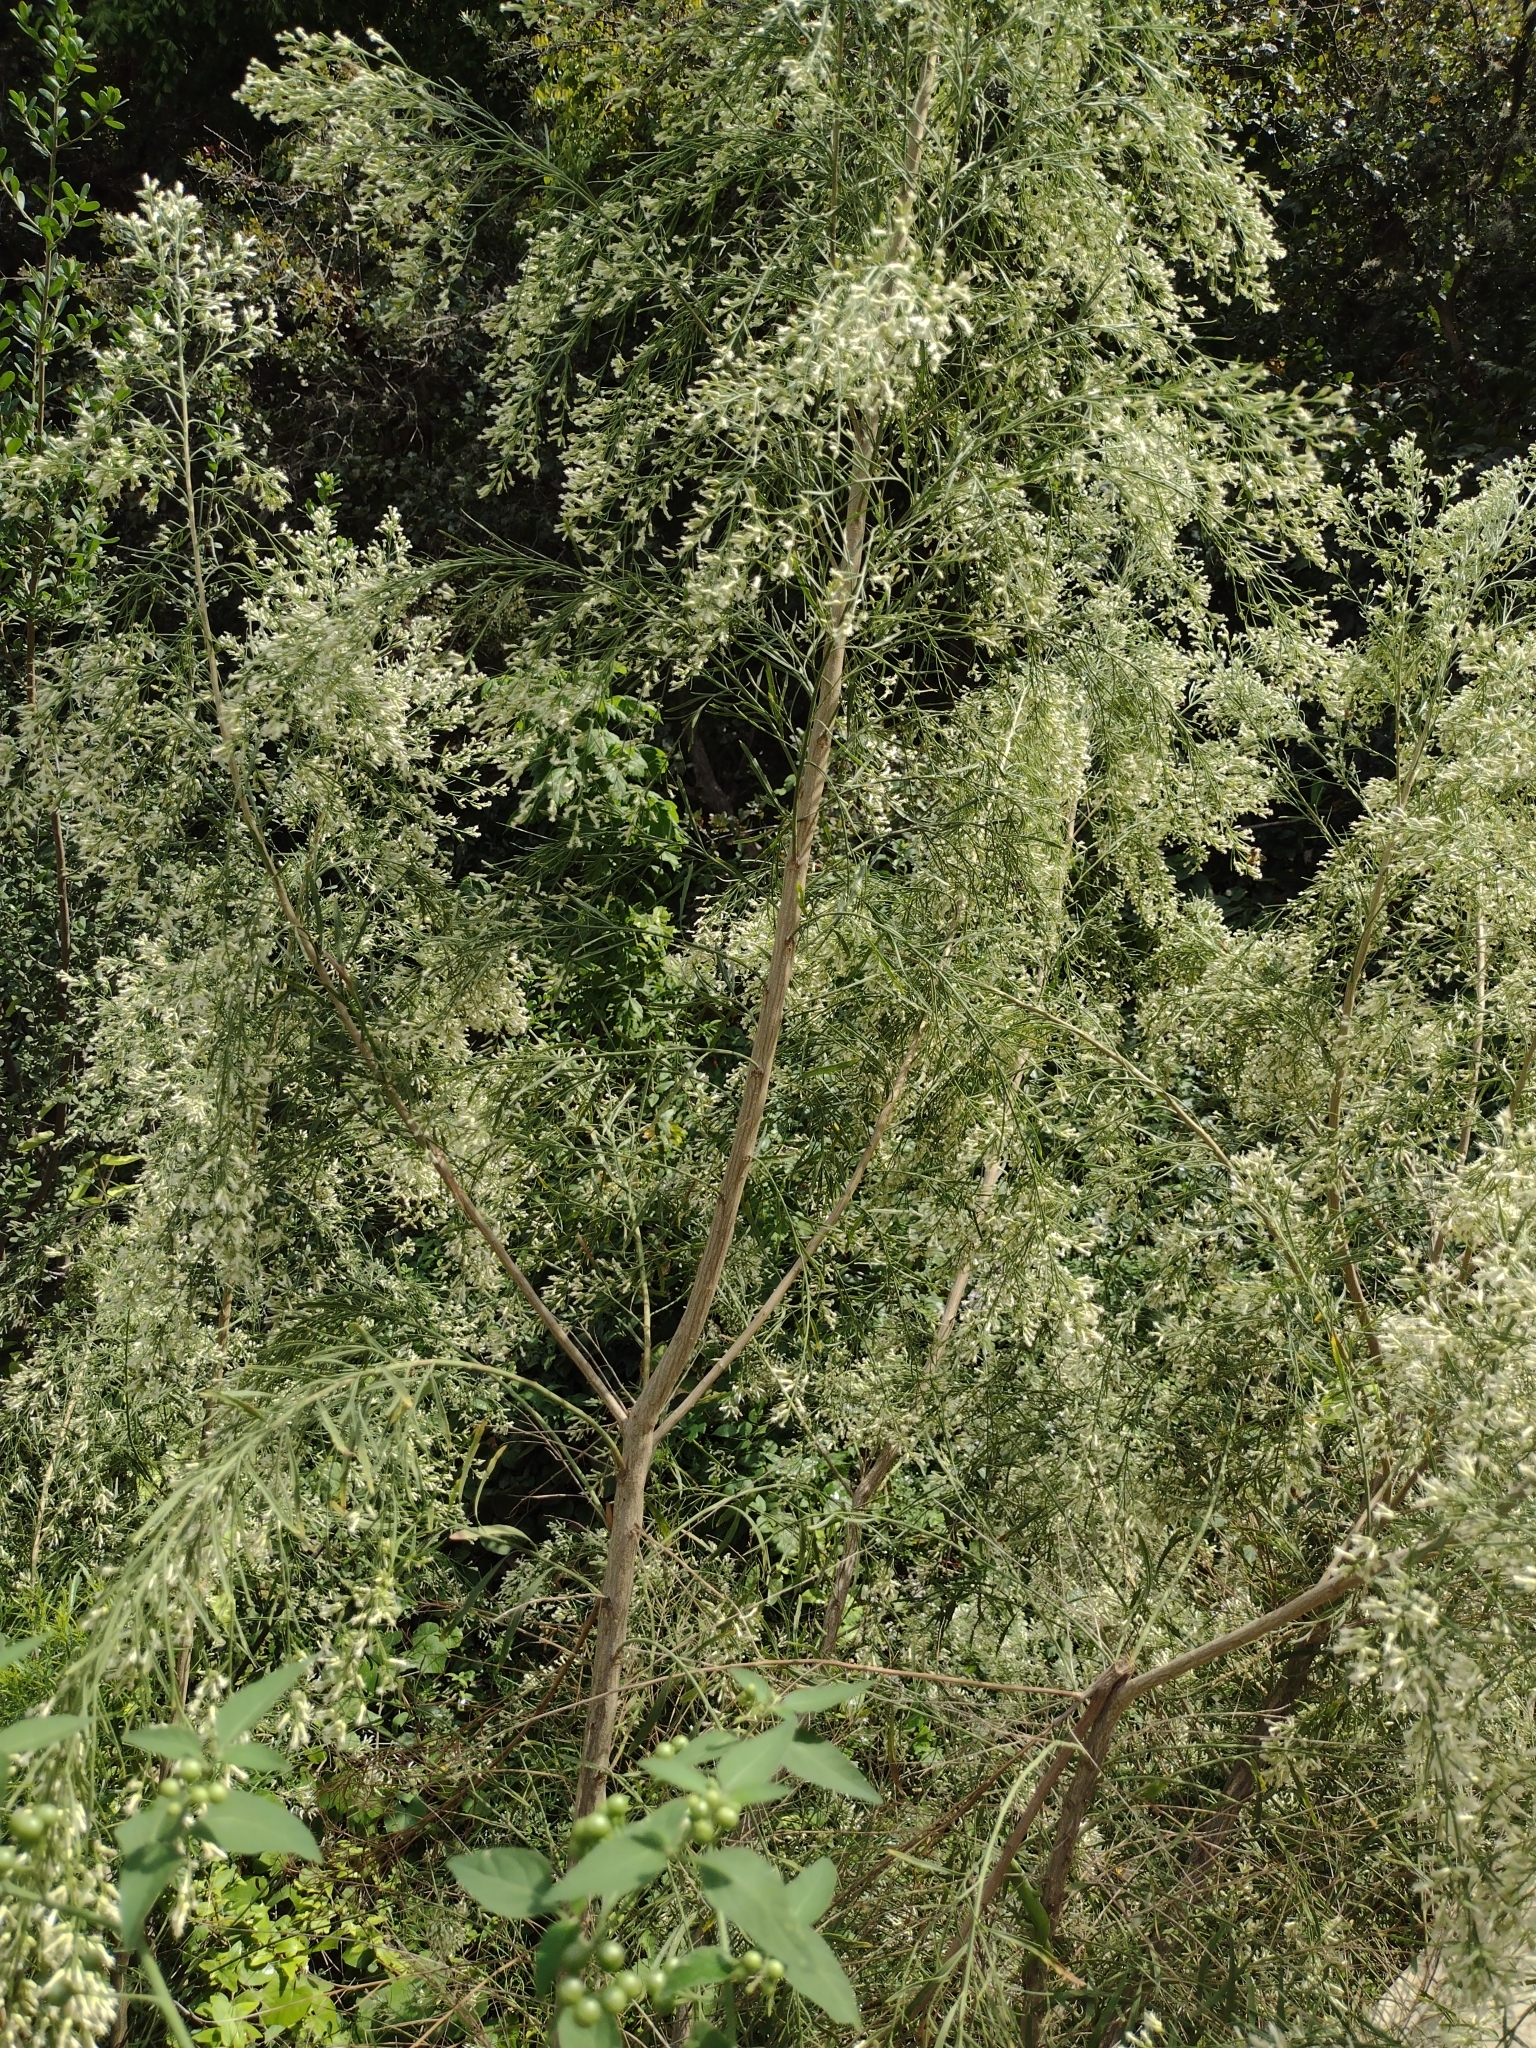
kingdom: Plantae
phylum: Tracheophyta
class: Magnoliopsida
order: Asterales
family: Asteraceae
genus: Baccharis
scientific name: Baccharis neglecta
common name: Roosevelt-weed
